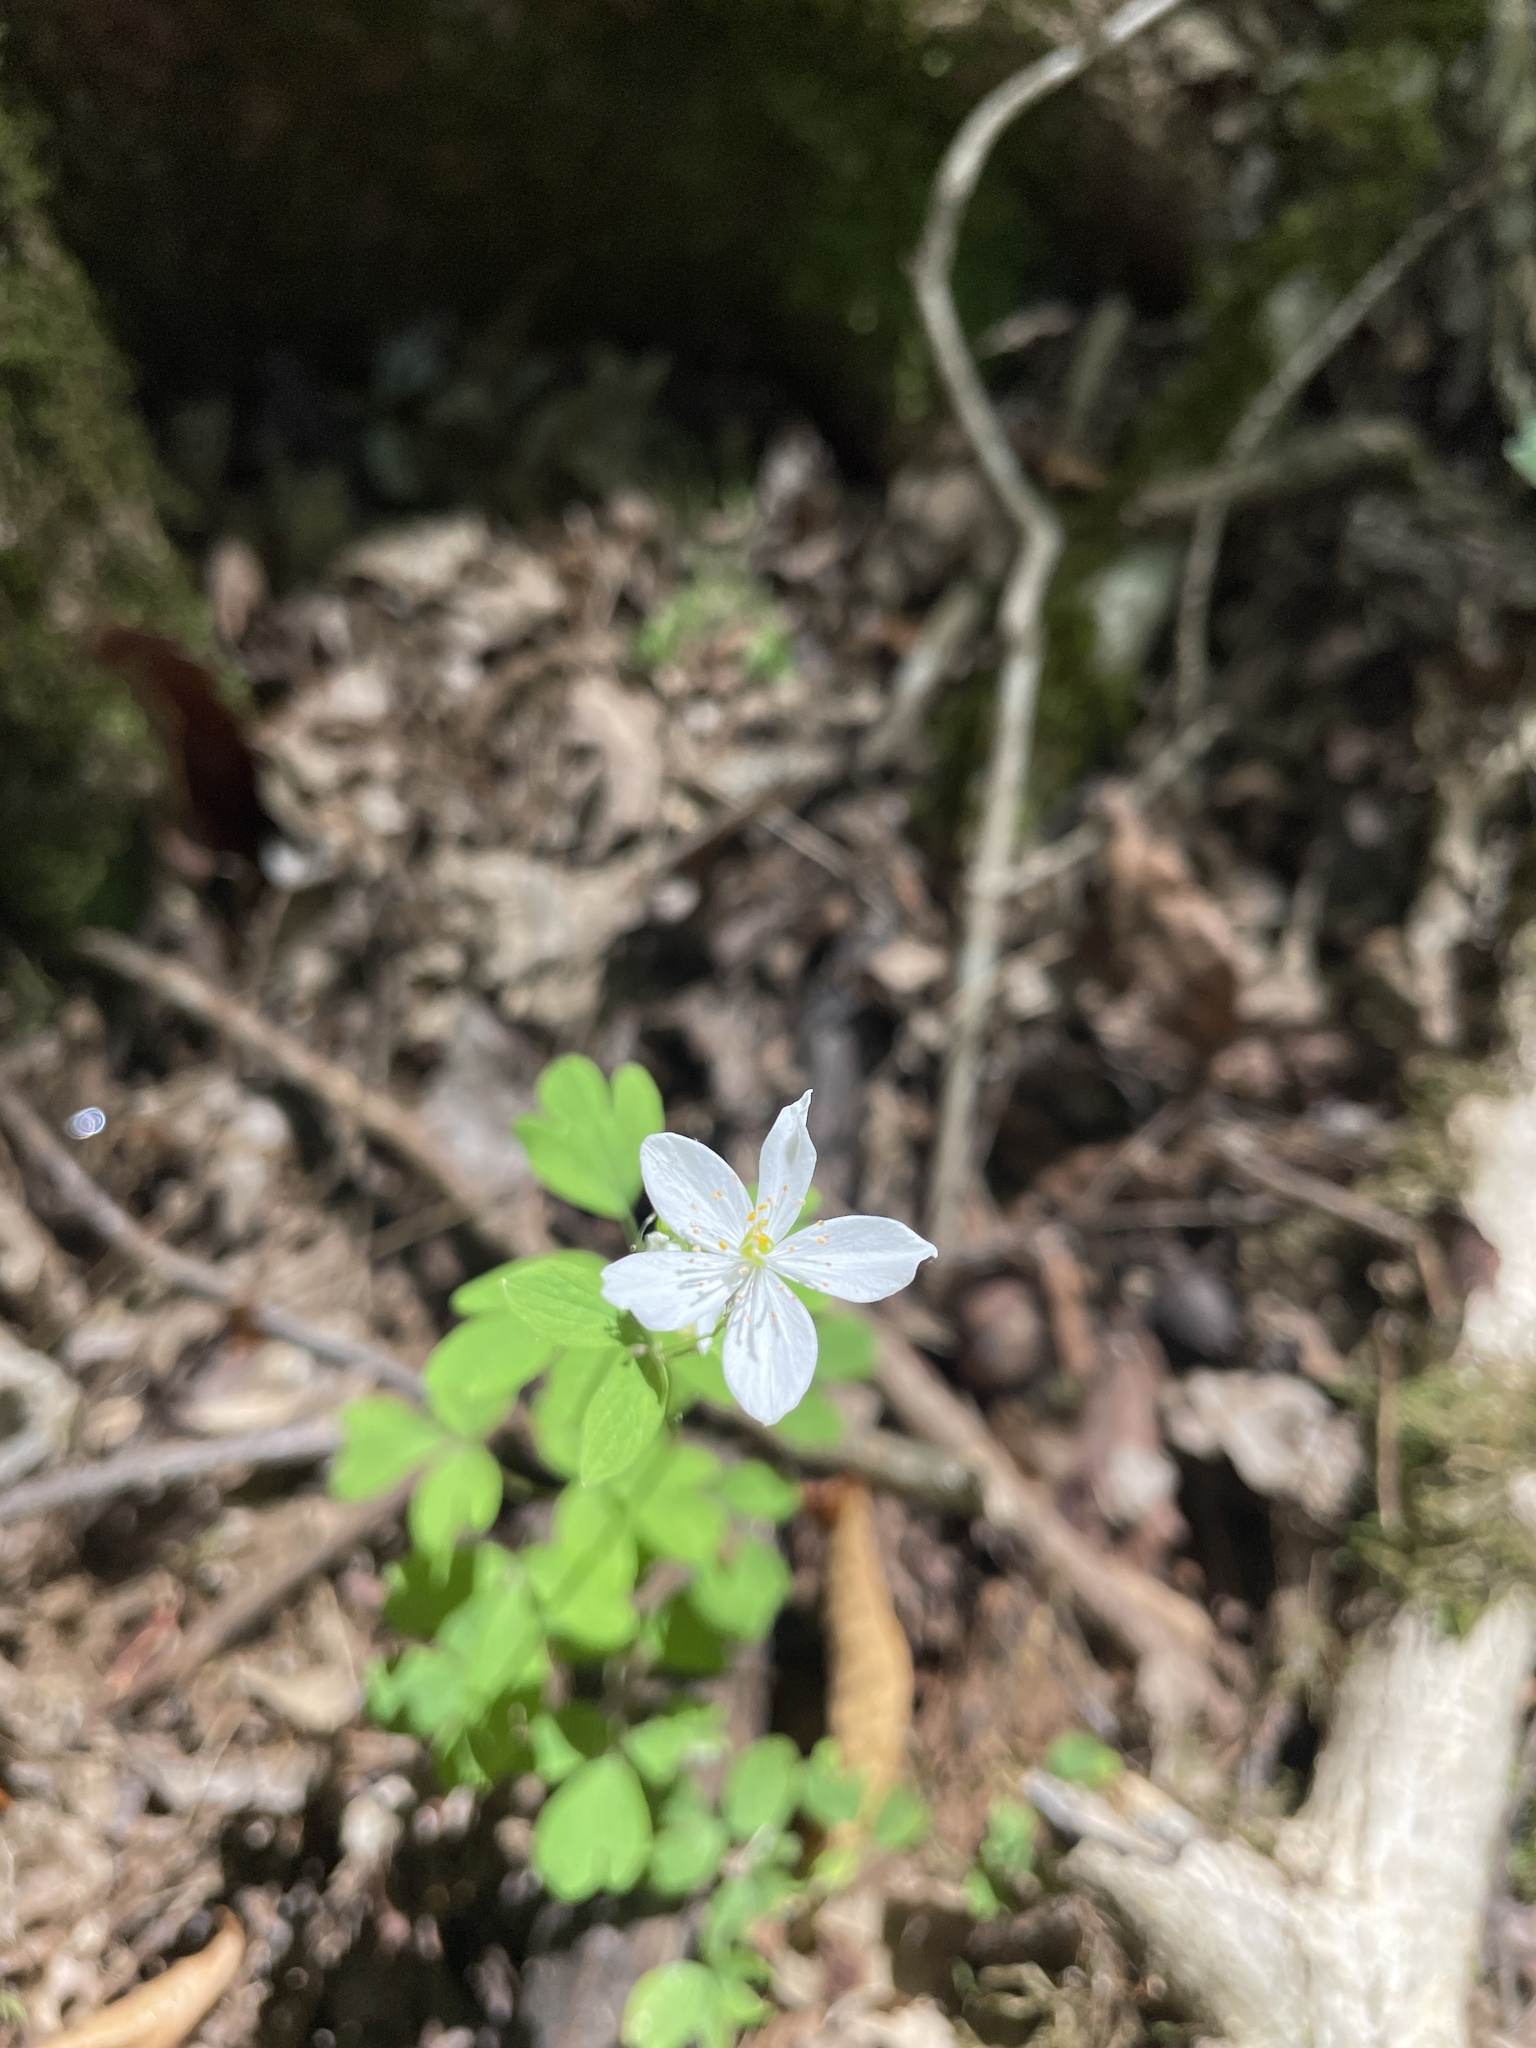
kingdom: Plantae
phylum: Tracheophyta
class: Magnoliopsida
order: Ranunculales
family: Ranunculaceae
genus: Enemion
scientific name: Enemion biternatum
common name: Eastern false rue-anemone
